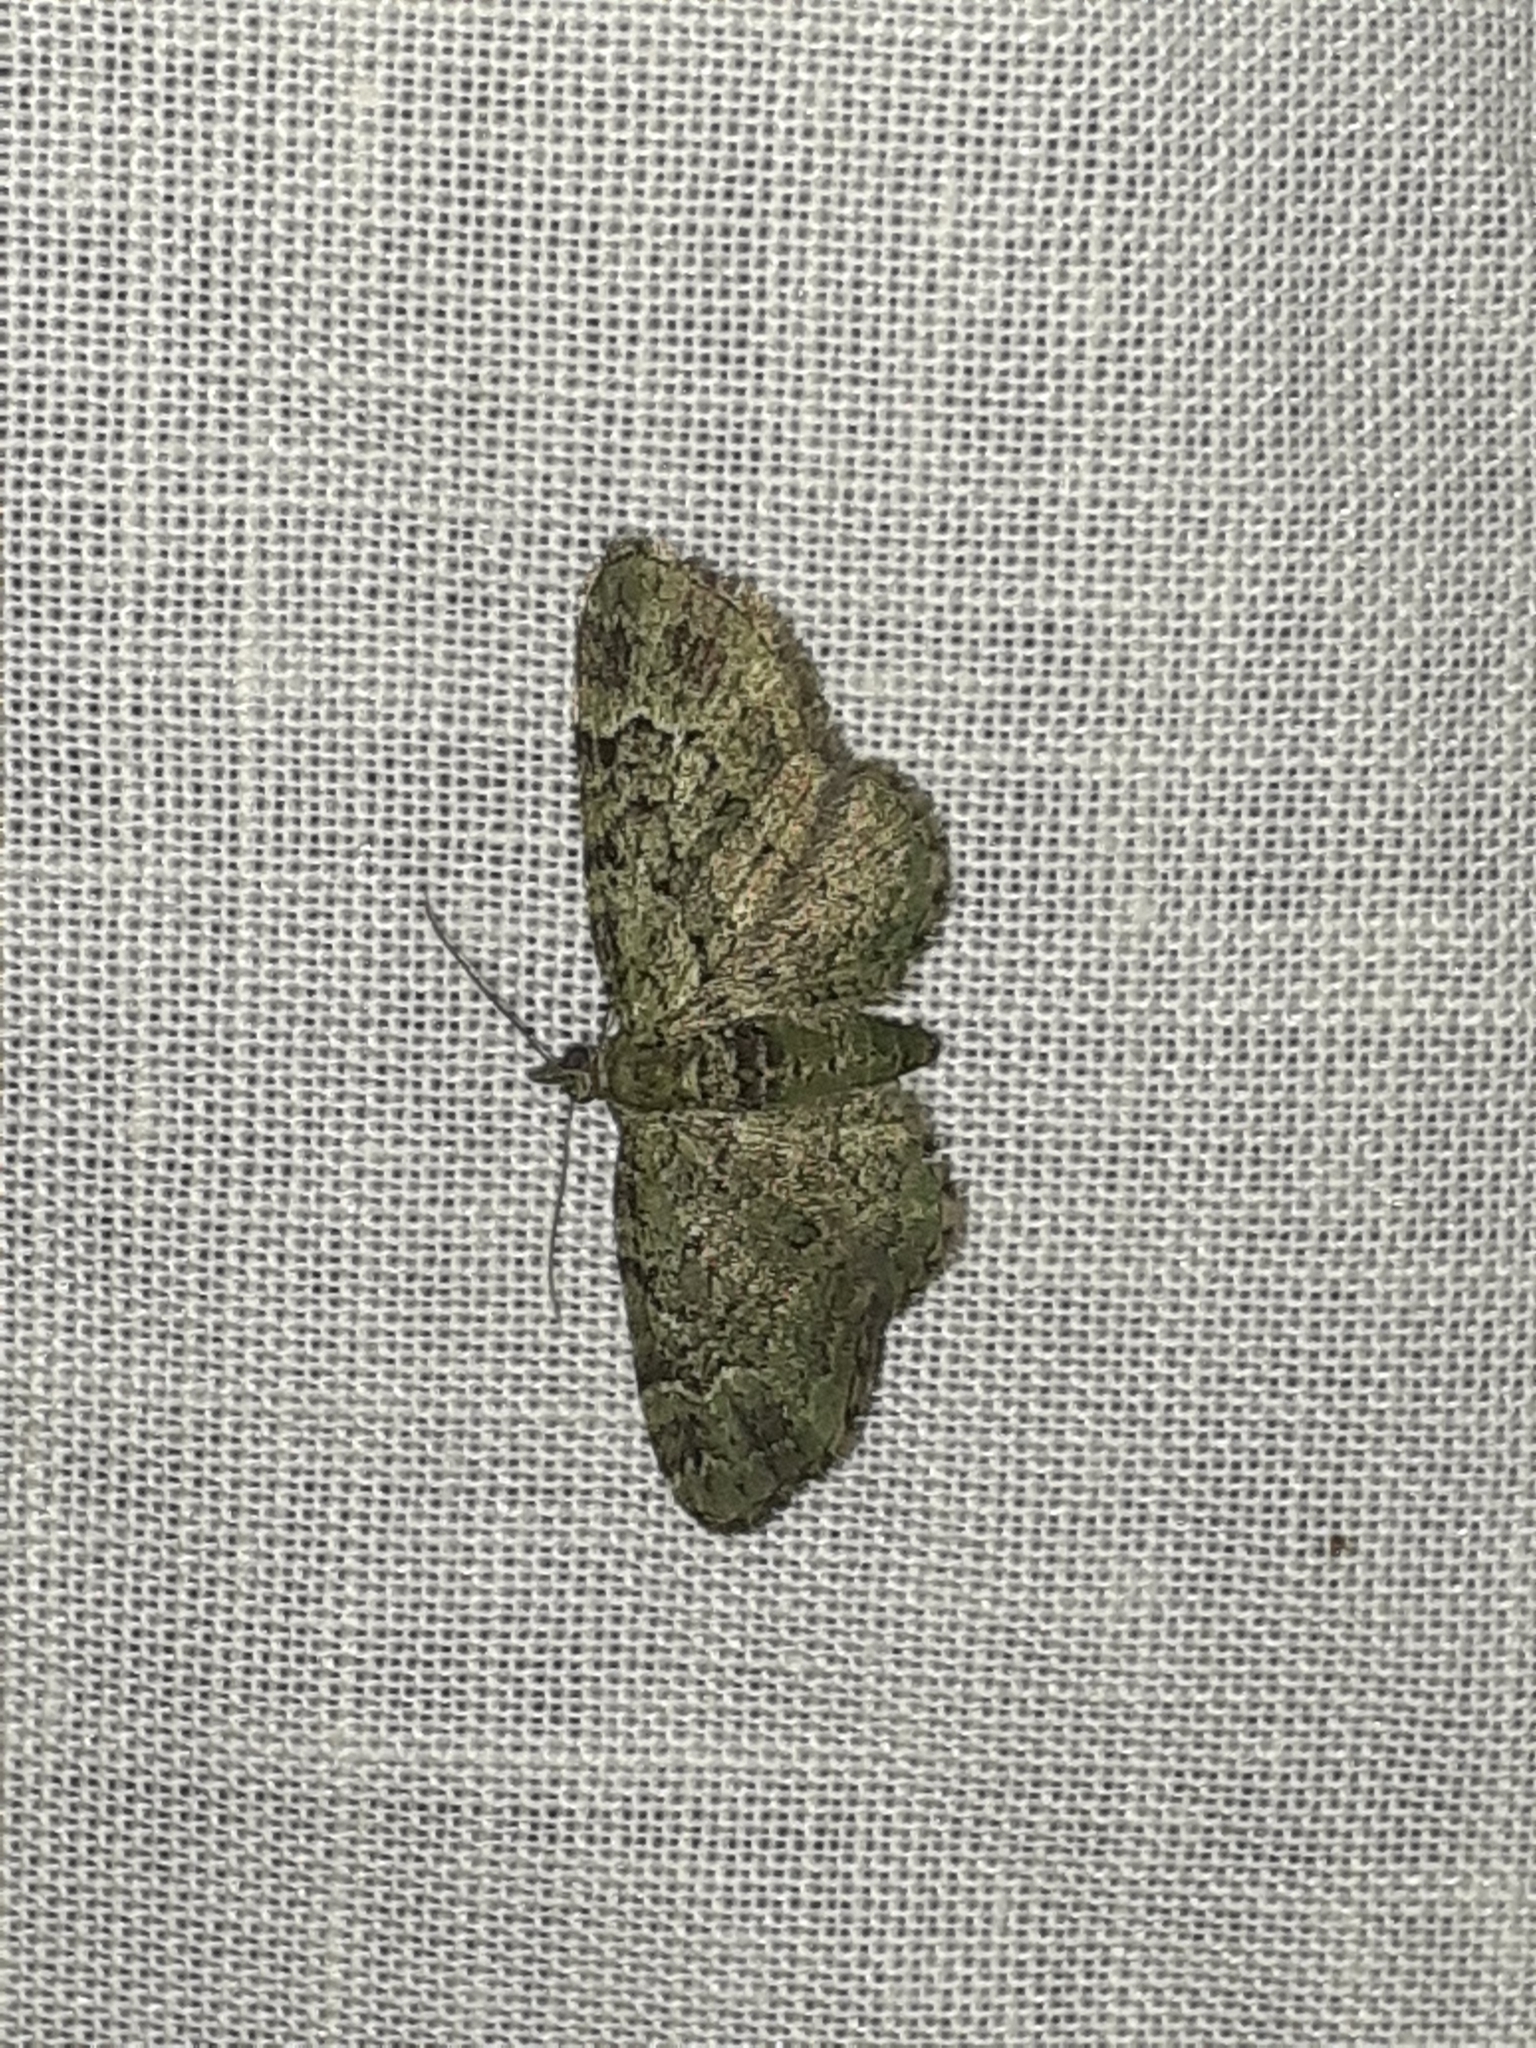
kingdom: Animalia
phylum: Arthropoda
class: Insecta
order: Lepidoptera
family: Geometridae
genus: Pasiphila
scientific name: Pasiphila rectangulata
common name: Green pug
